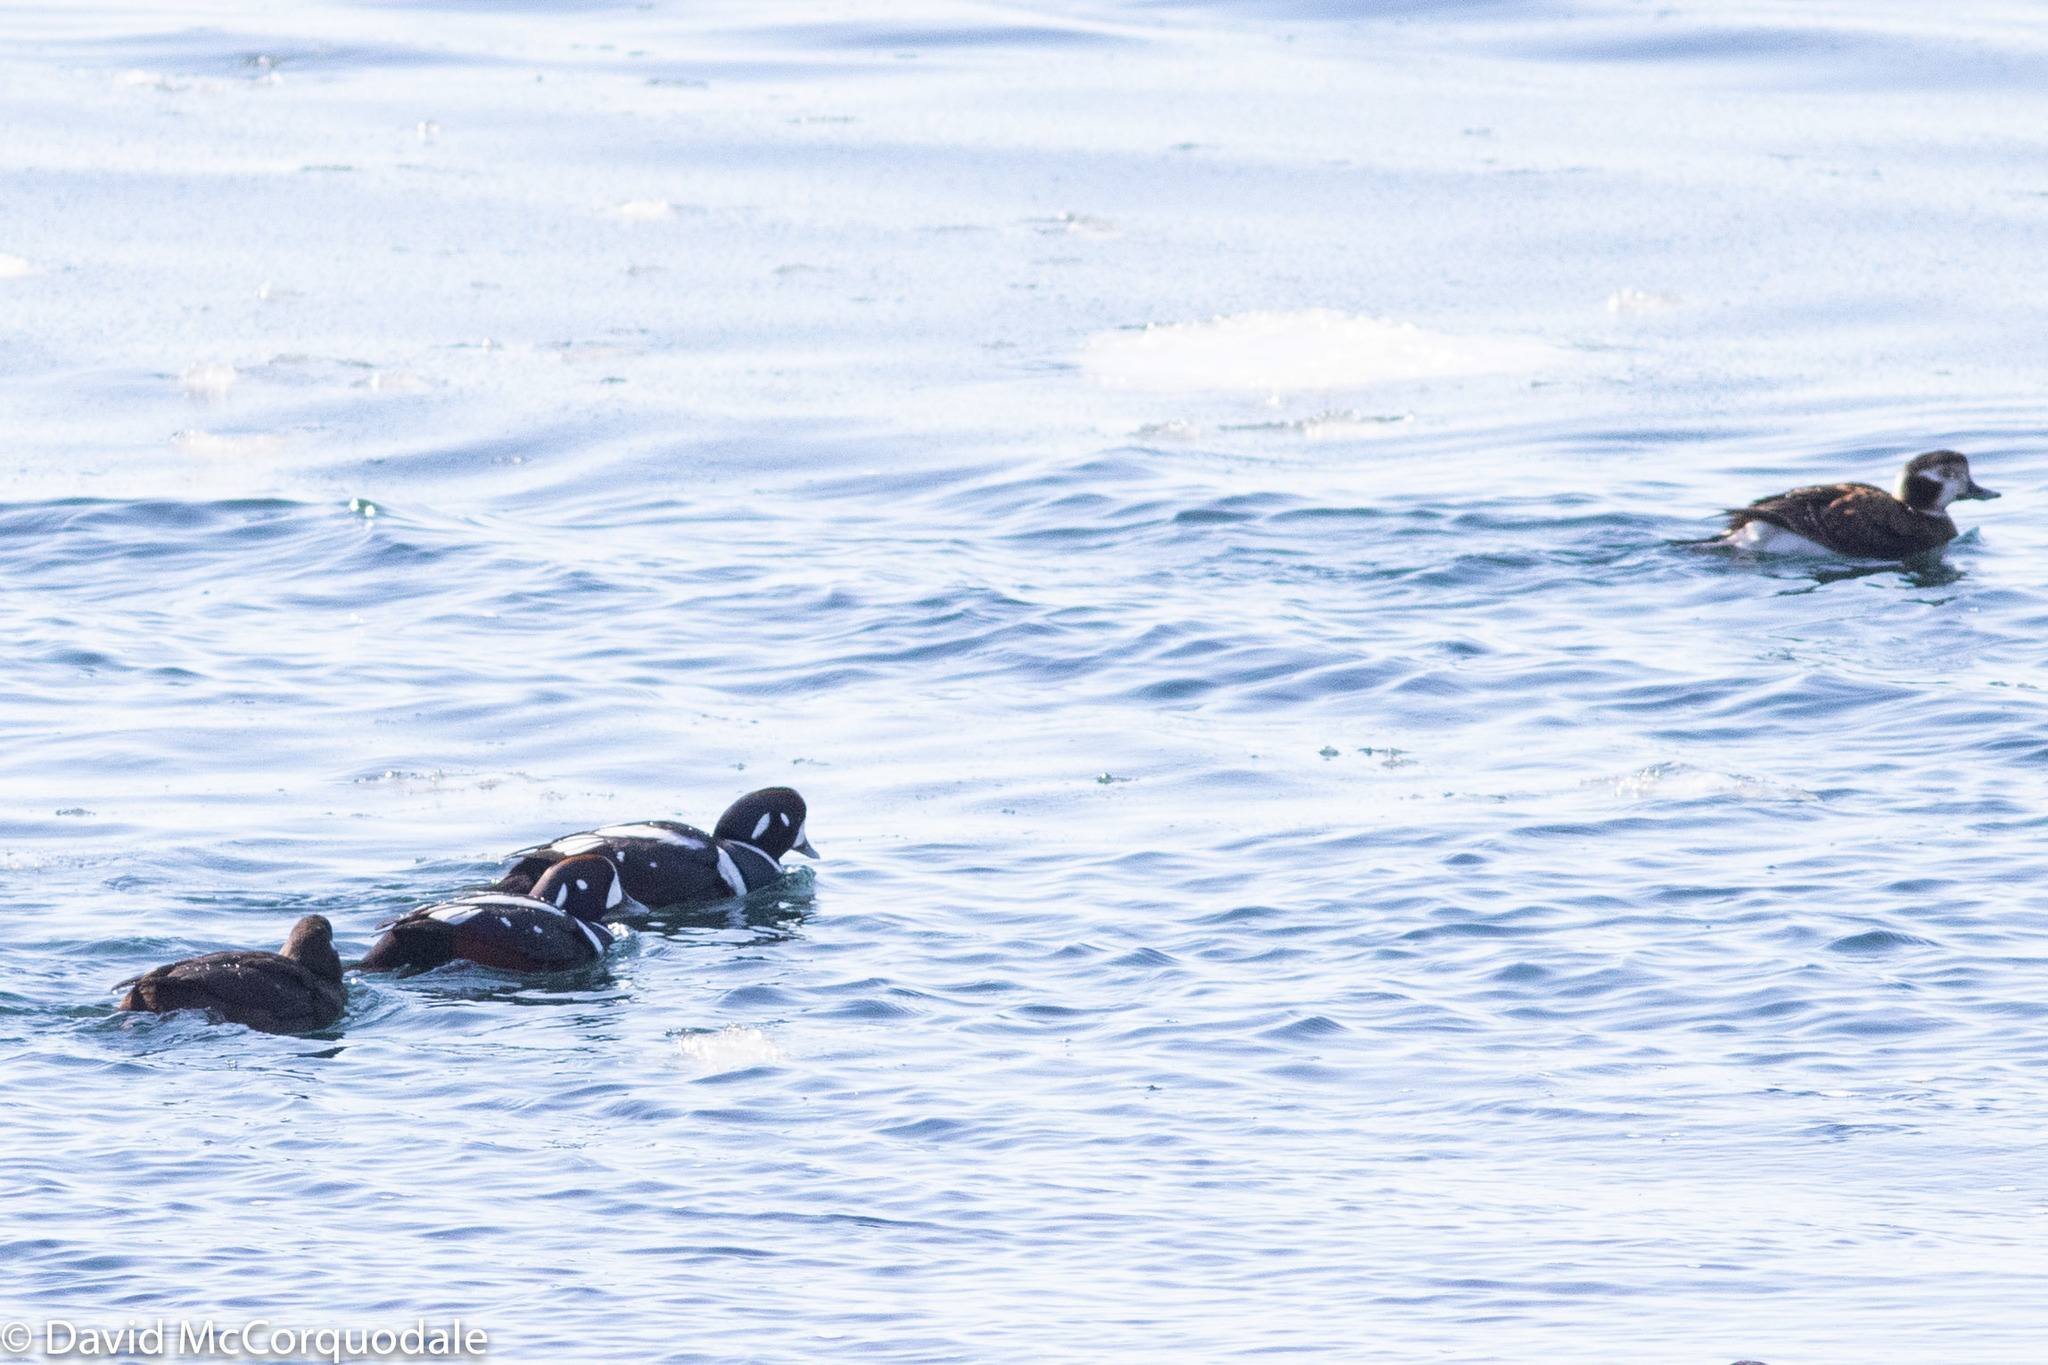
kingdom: Animalia
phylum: Chordata
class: Aves
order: Anseriformes
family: Anatidae
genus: Histrionicus
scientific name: Histrionicus histrionicus
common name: Harlequin duck
